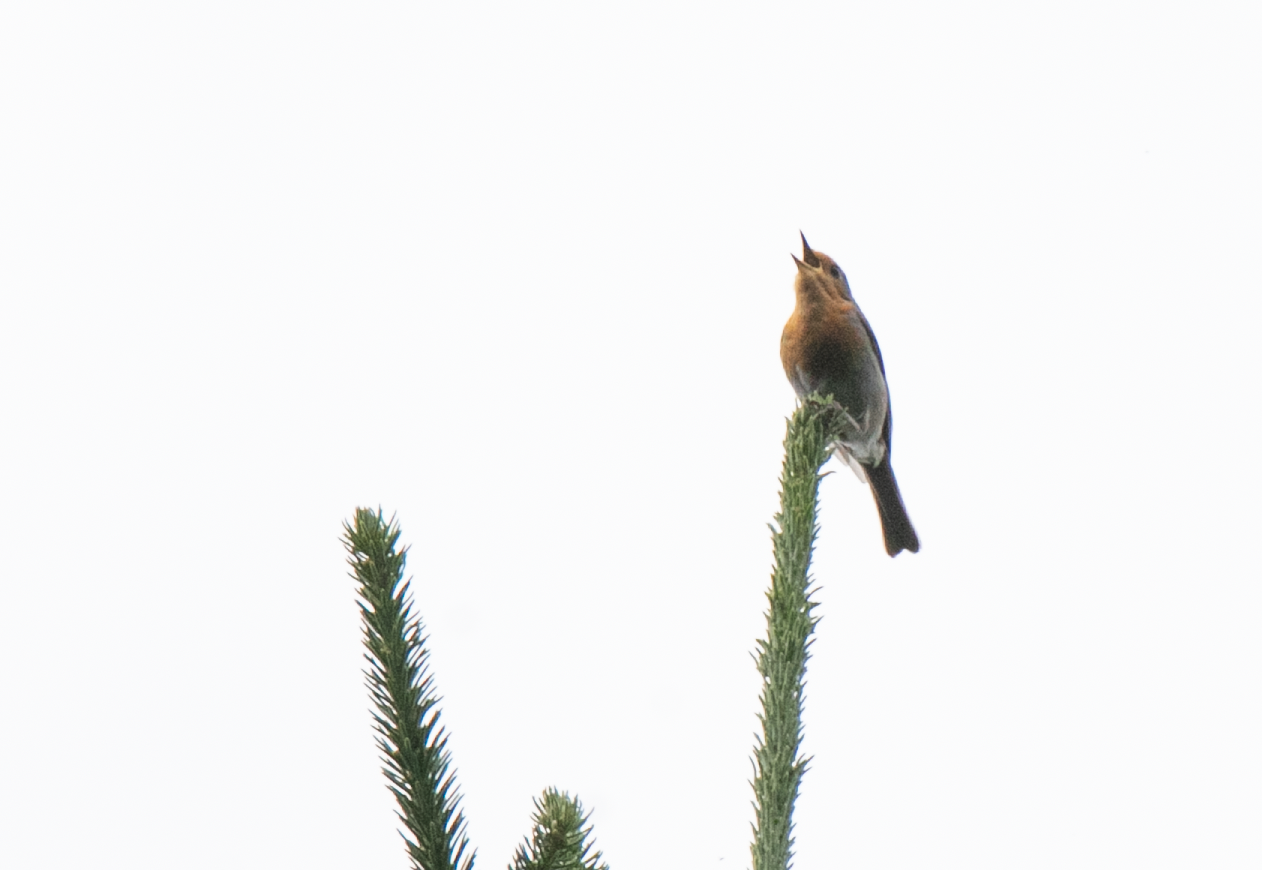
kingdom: Animalia
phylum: Chordata
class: Aves
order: Passeriformes
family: Muscicapidae
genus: Erithacus
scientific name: Erithacus rubecula
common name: European robin
